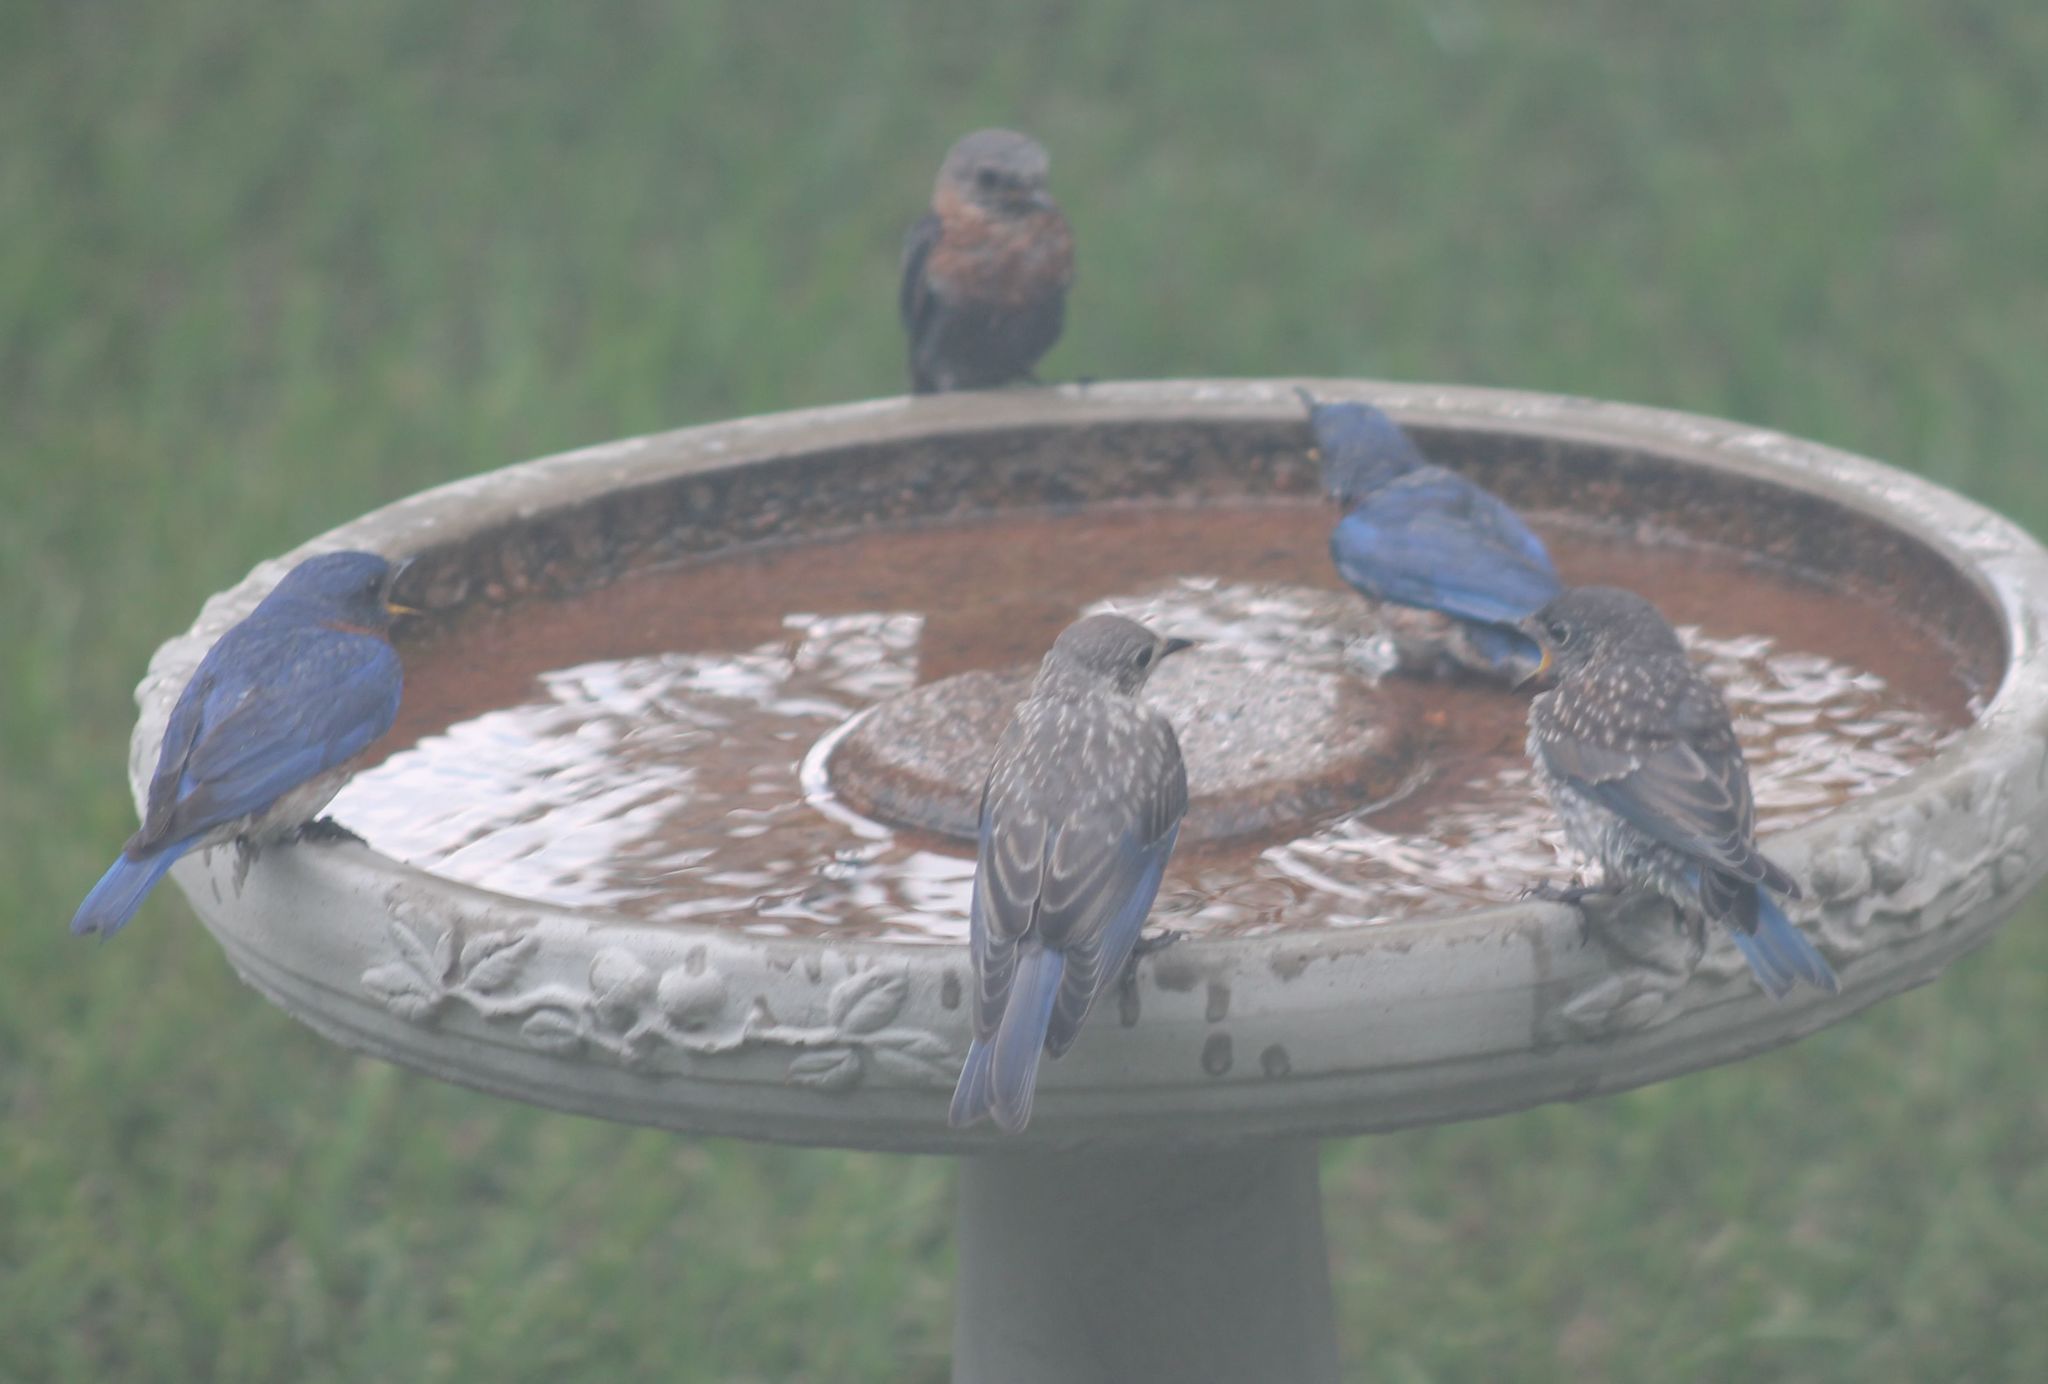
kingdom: Animalia
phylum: Chordata
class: Aves
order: Passeriformes
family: Turdidae
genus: Sialia
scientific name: Sialia sialis
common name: Eastern bluebird
